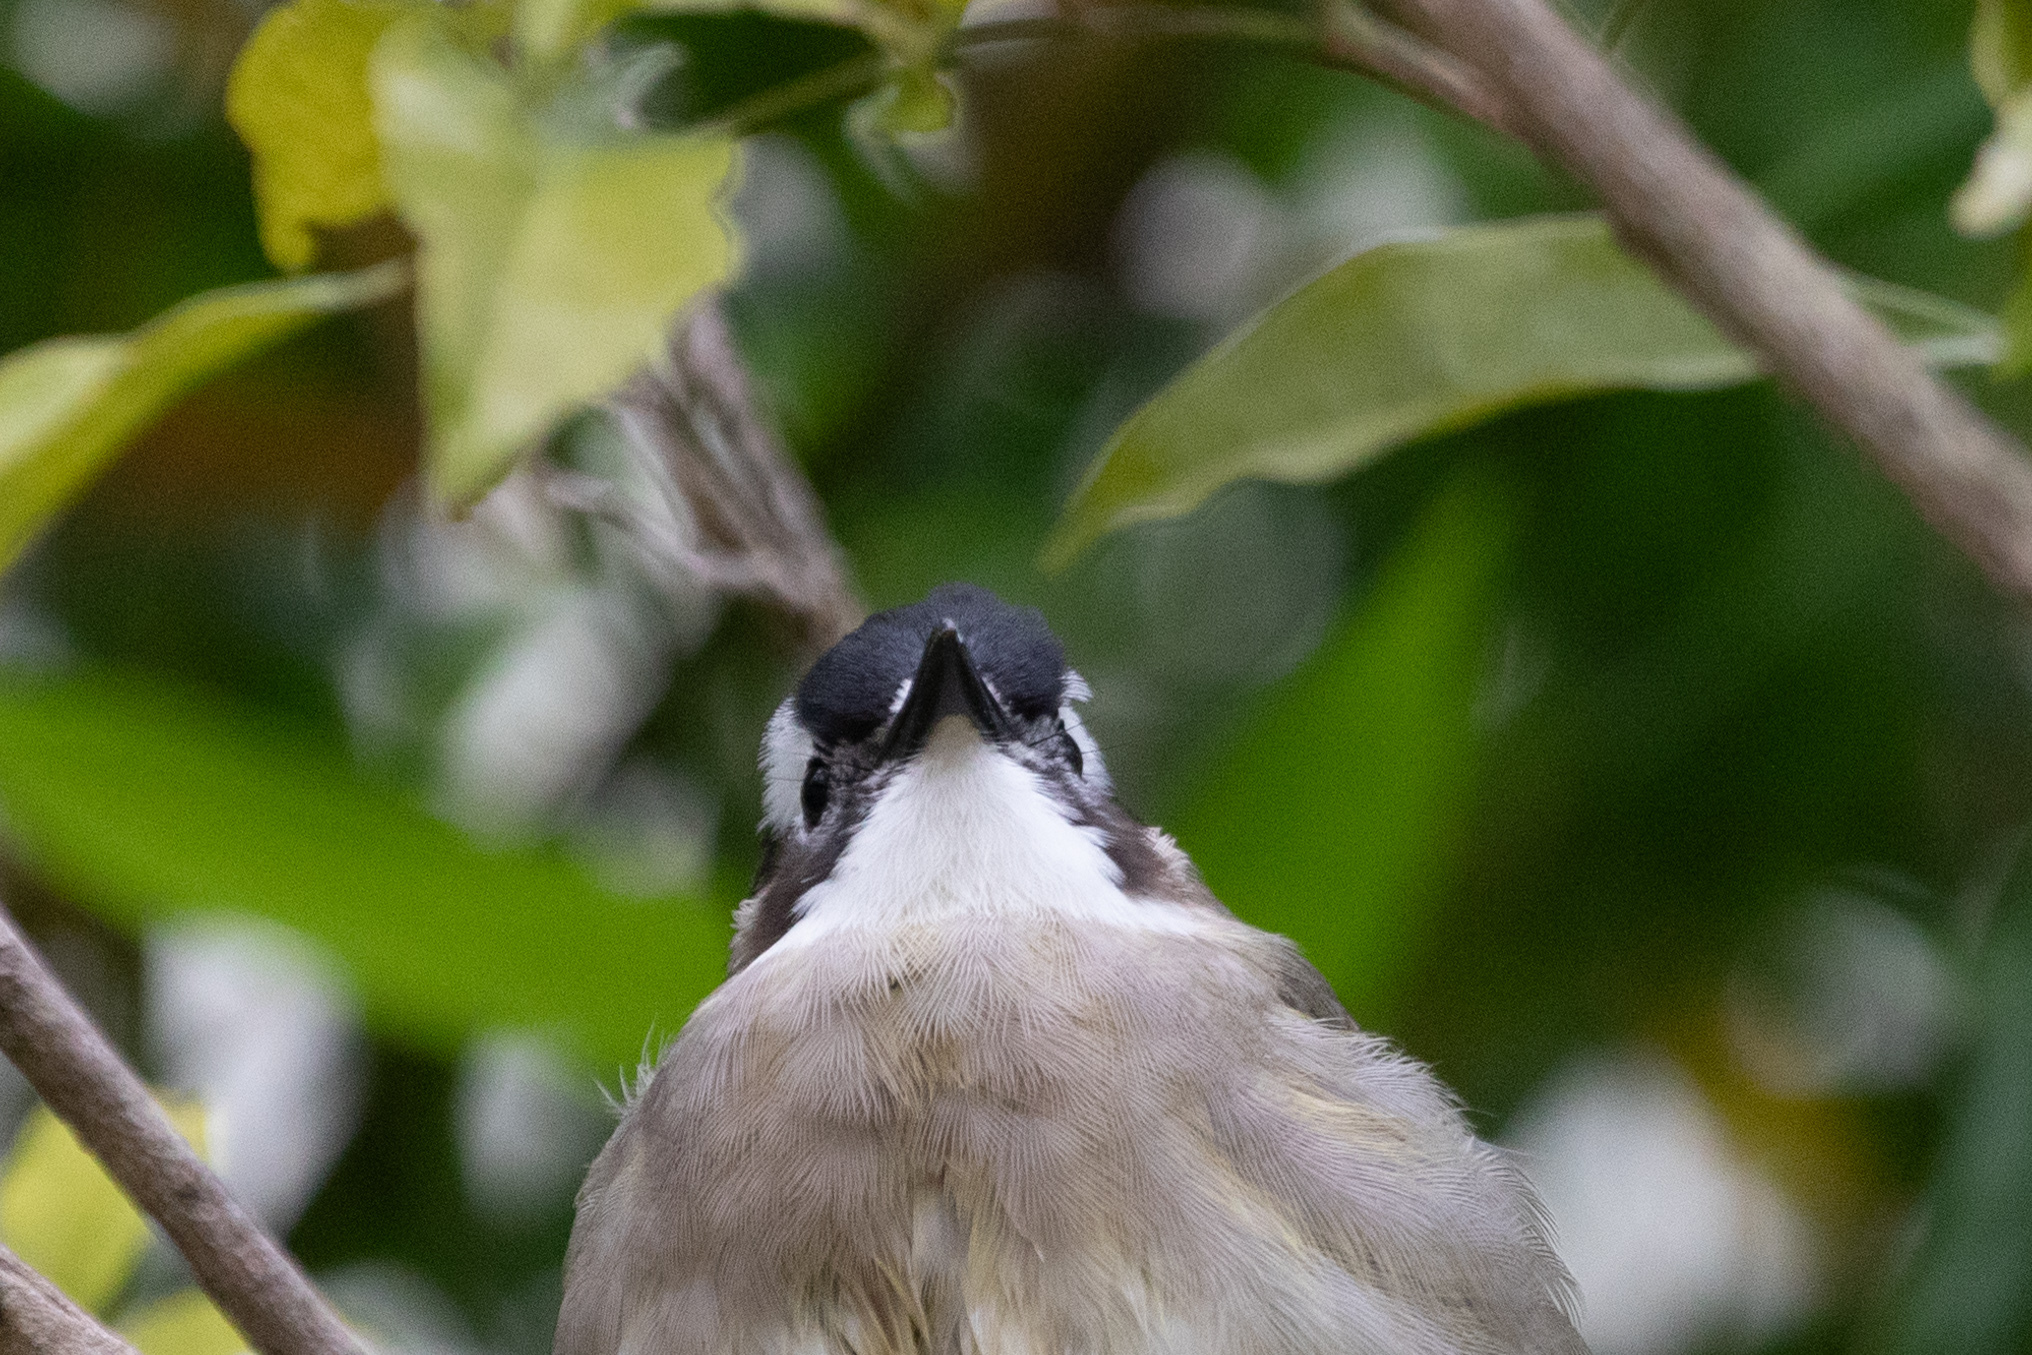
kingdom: Animalia
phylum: Chordata
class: Aves
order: Passeriformes
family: Pycnonotidae
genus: Pycnonotus
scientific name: Pycnonotus sinensis
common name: Light-vented bulbul
